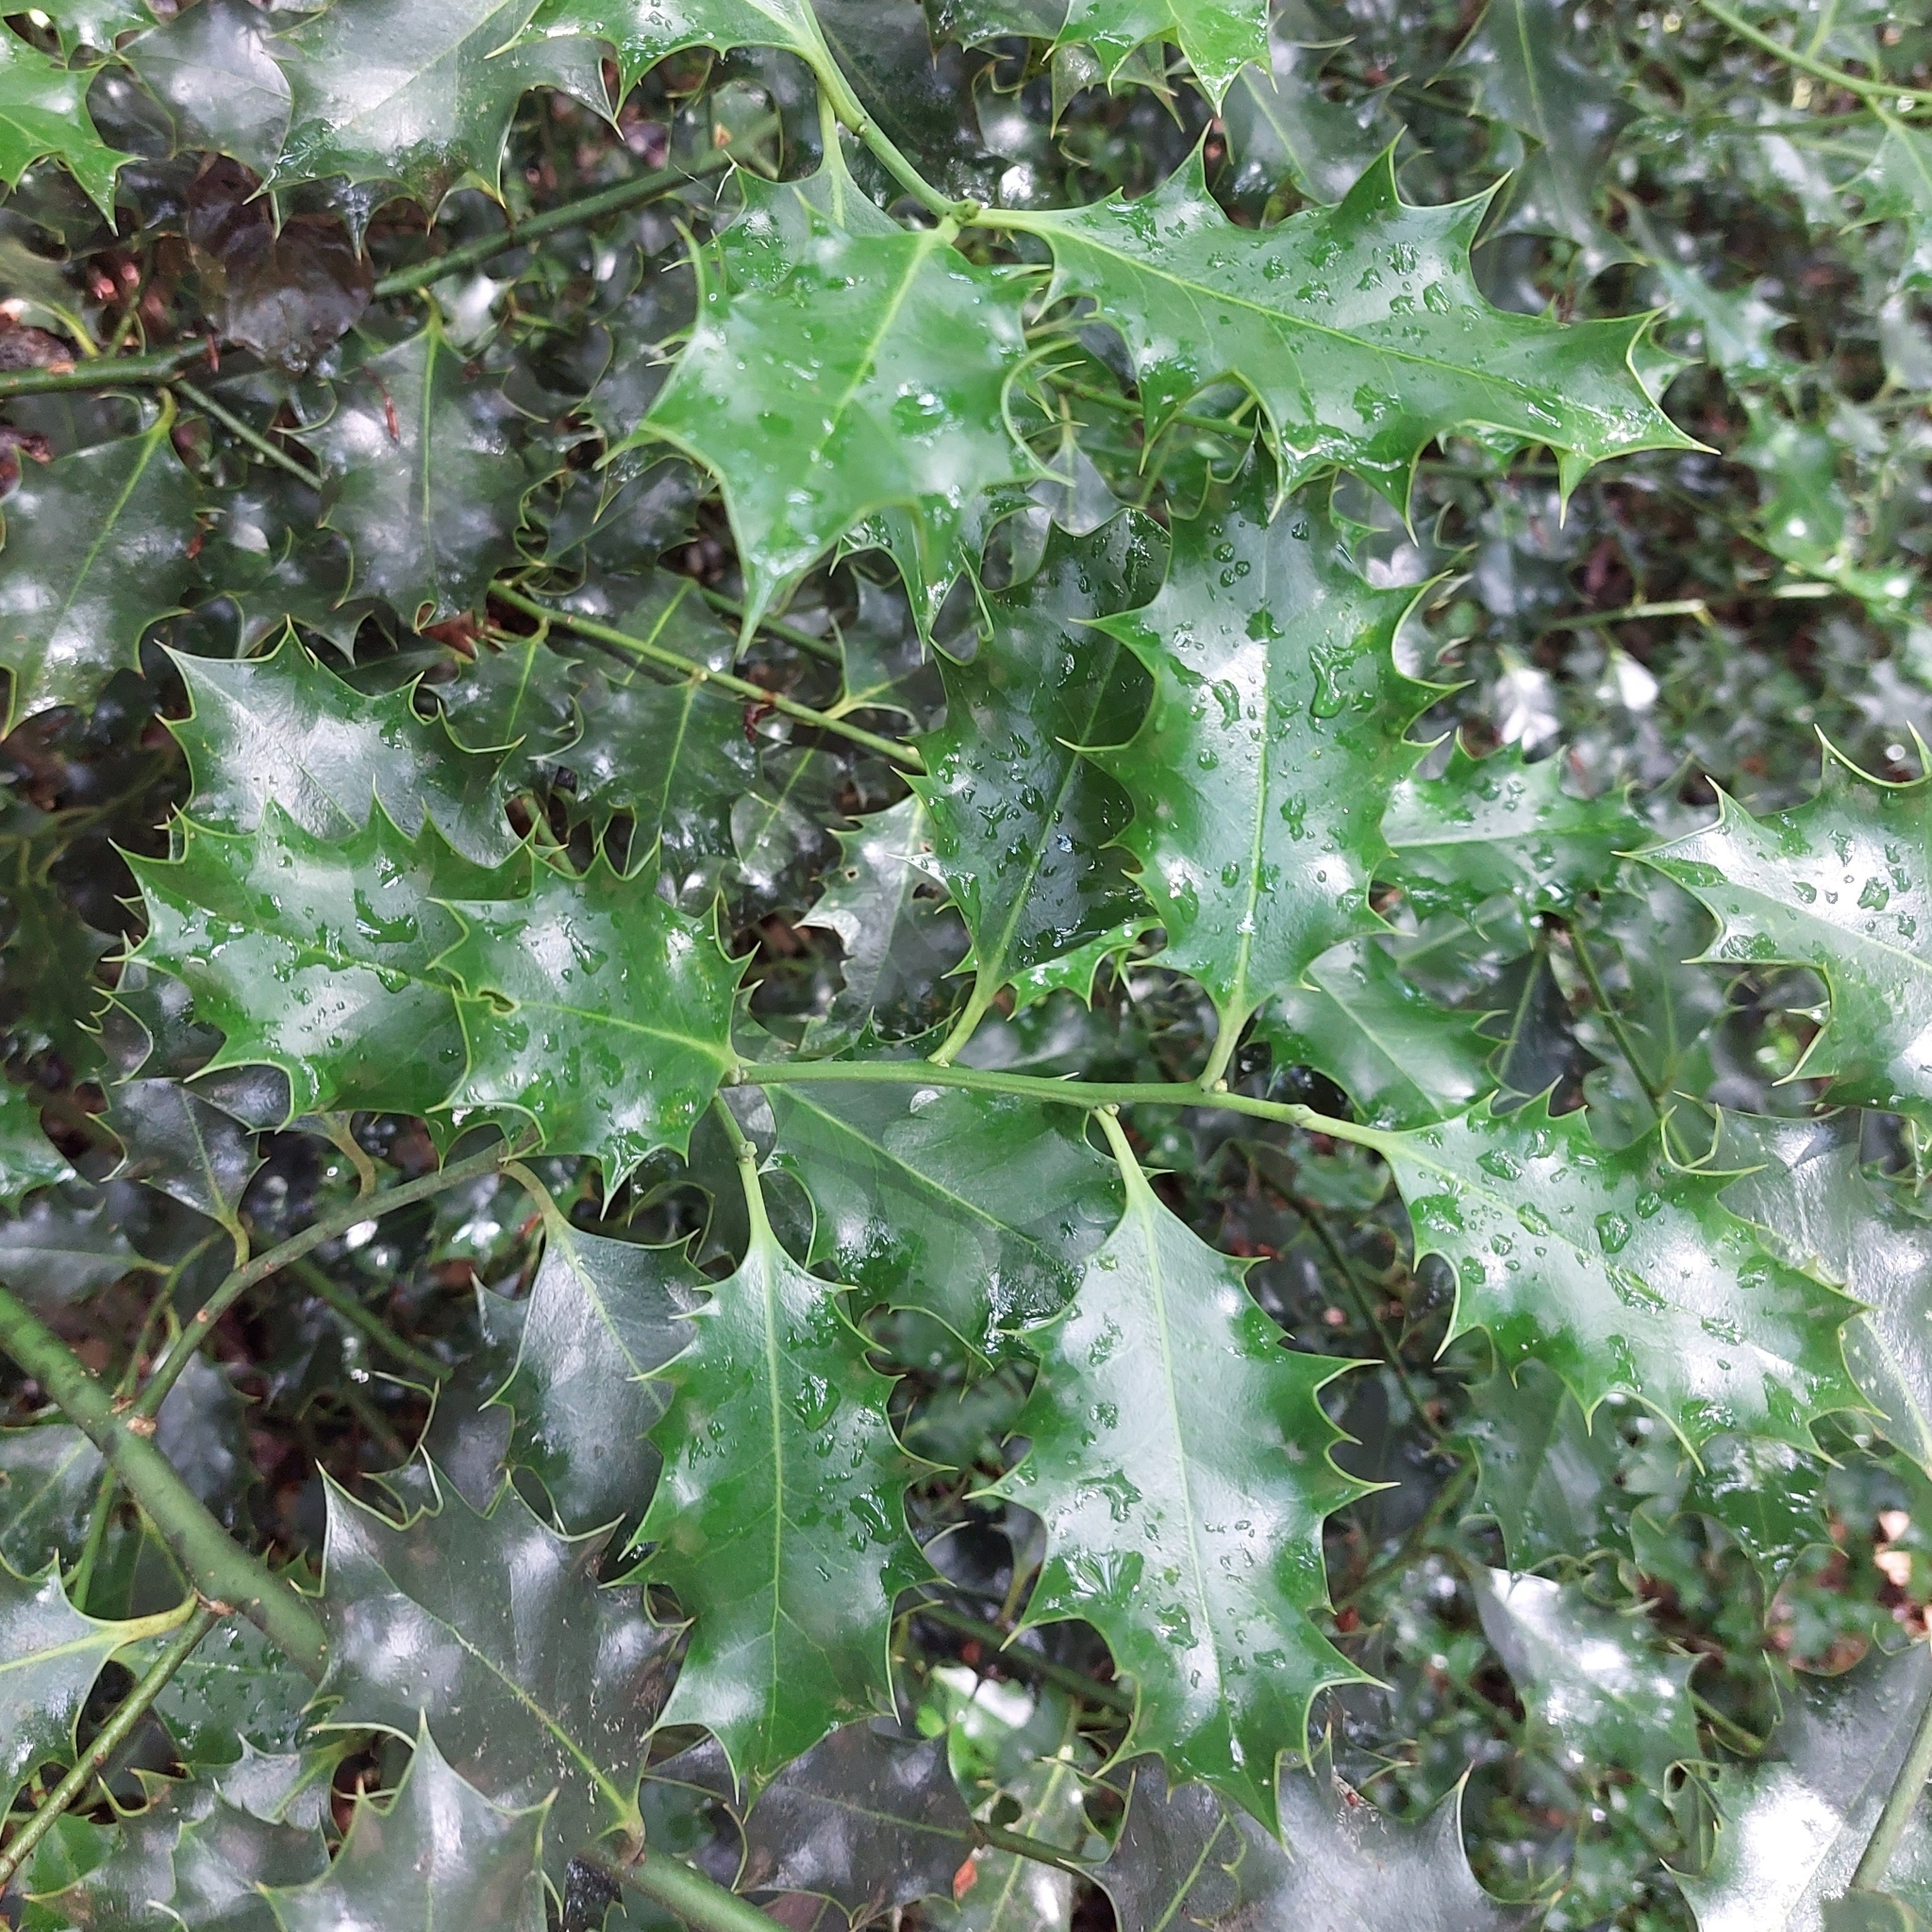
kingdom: Plantae
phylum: Tracheophyta
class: Magnoliopsida
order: Aquifoliales
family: Aquifoliaceae
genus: Ilex
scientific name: Ilex aquifolium
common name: English holly
